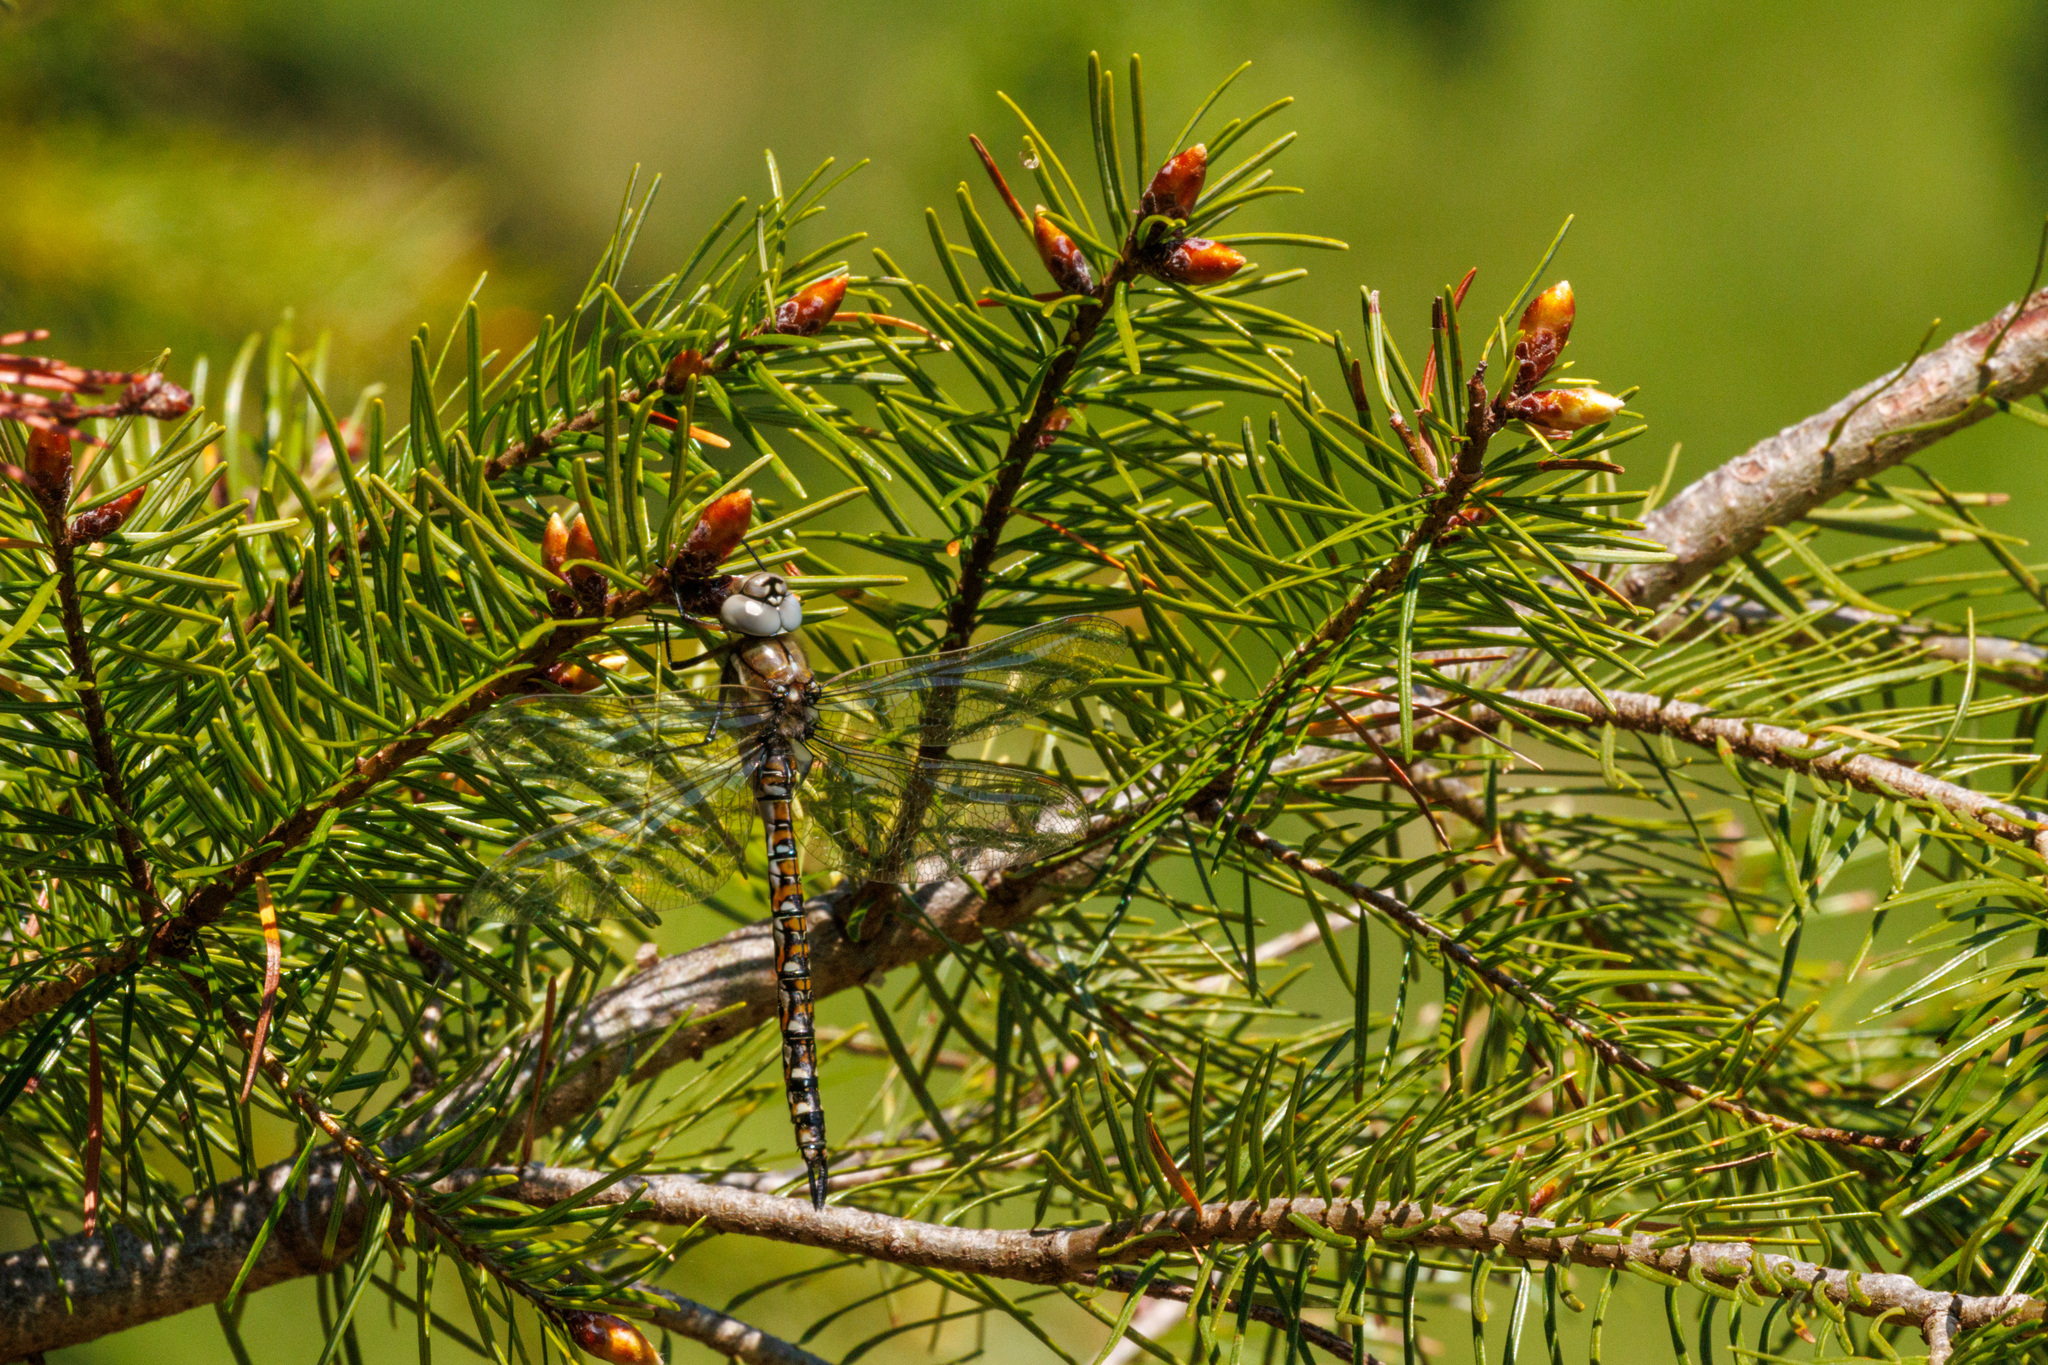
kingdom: Animalia
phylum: Arthropoda
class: Insecta
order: Odonata
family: Aeshnidae
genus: Rhionaeschna
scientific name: Rhionaeschna californica
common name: California darner
